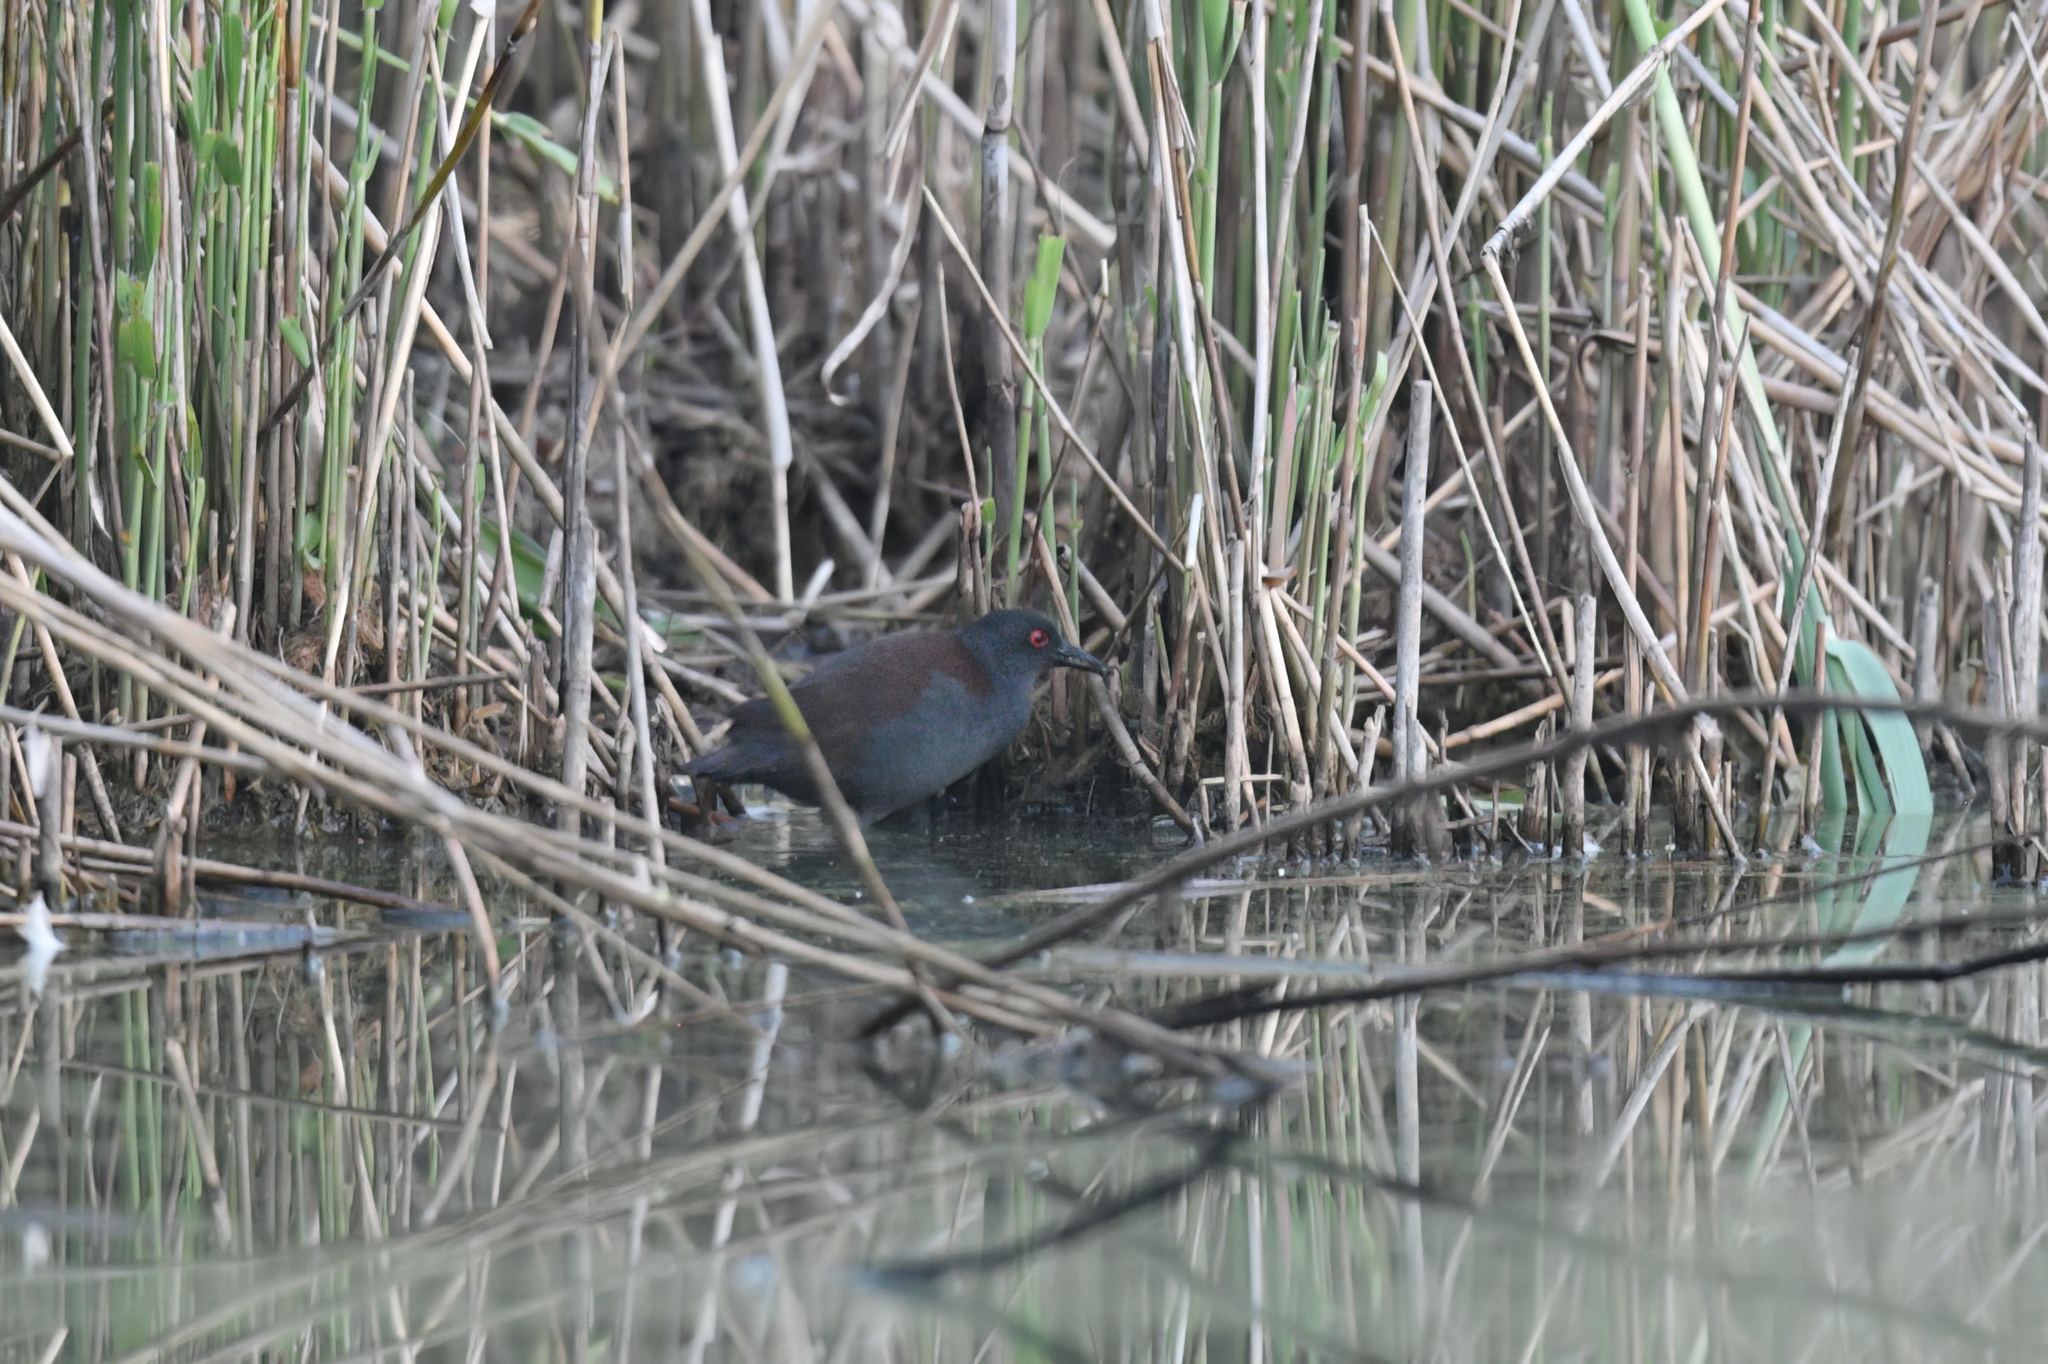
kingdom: Animalia
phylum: Chordata
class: Aves
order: Gruiformes
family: Rallidae
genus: Porzana
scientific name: Porzana tabuensis
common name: Spotless crake
